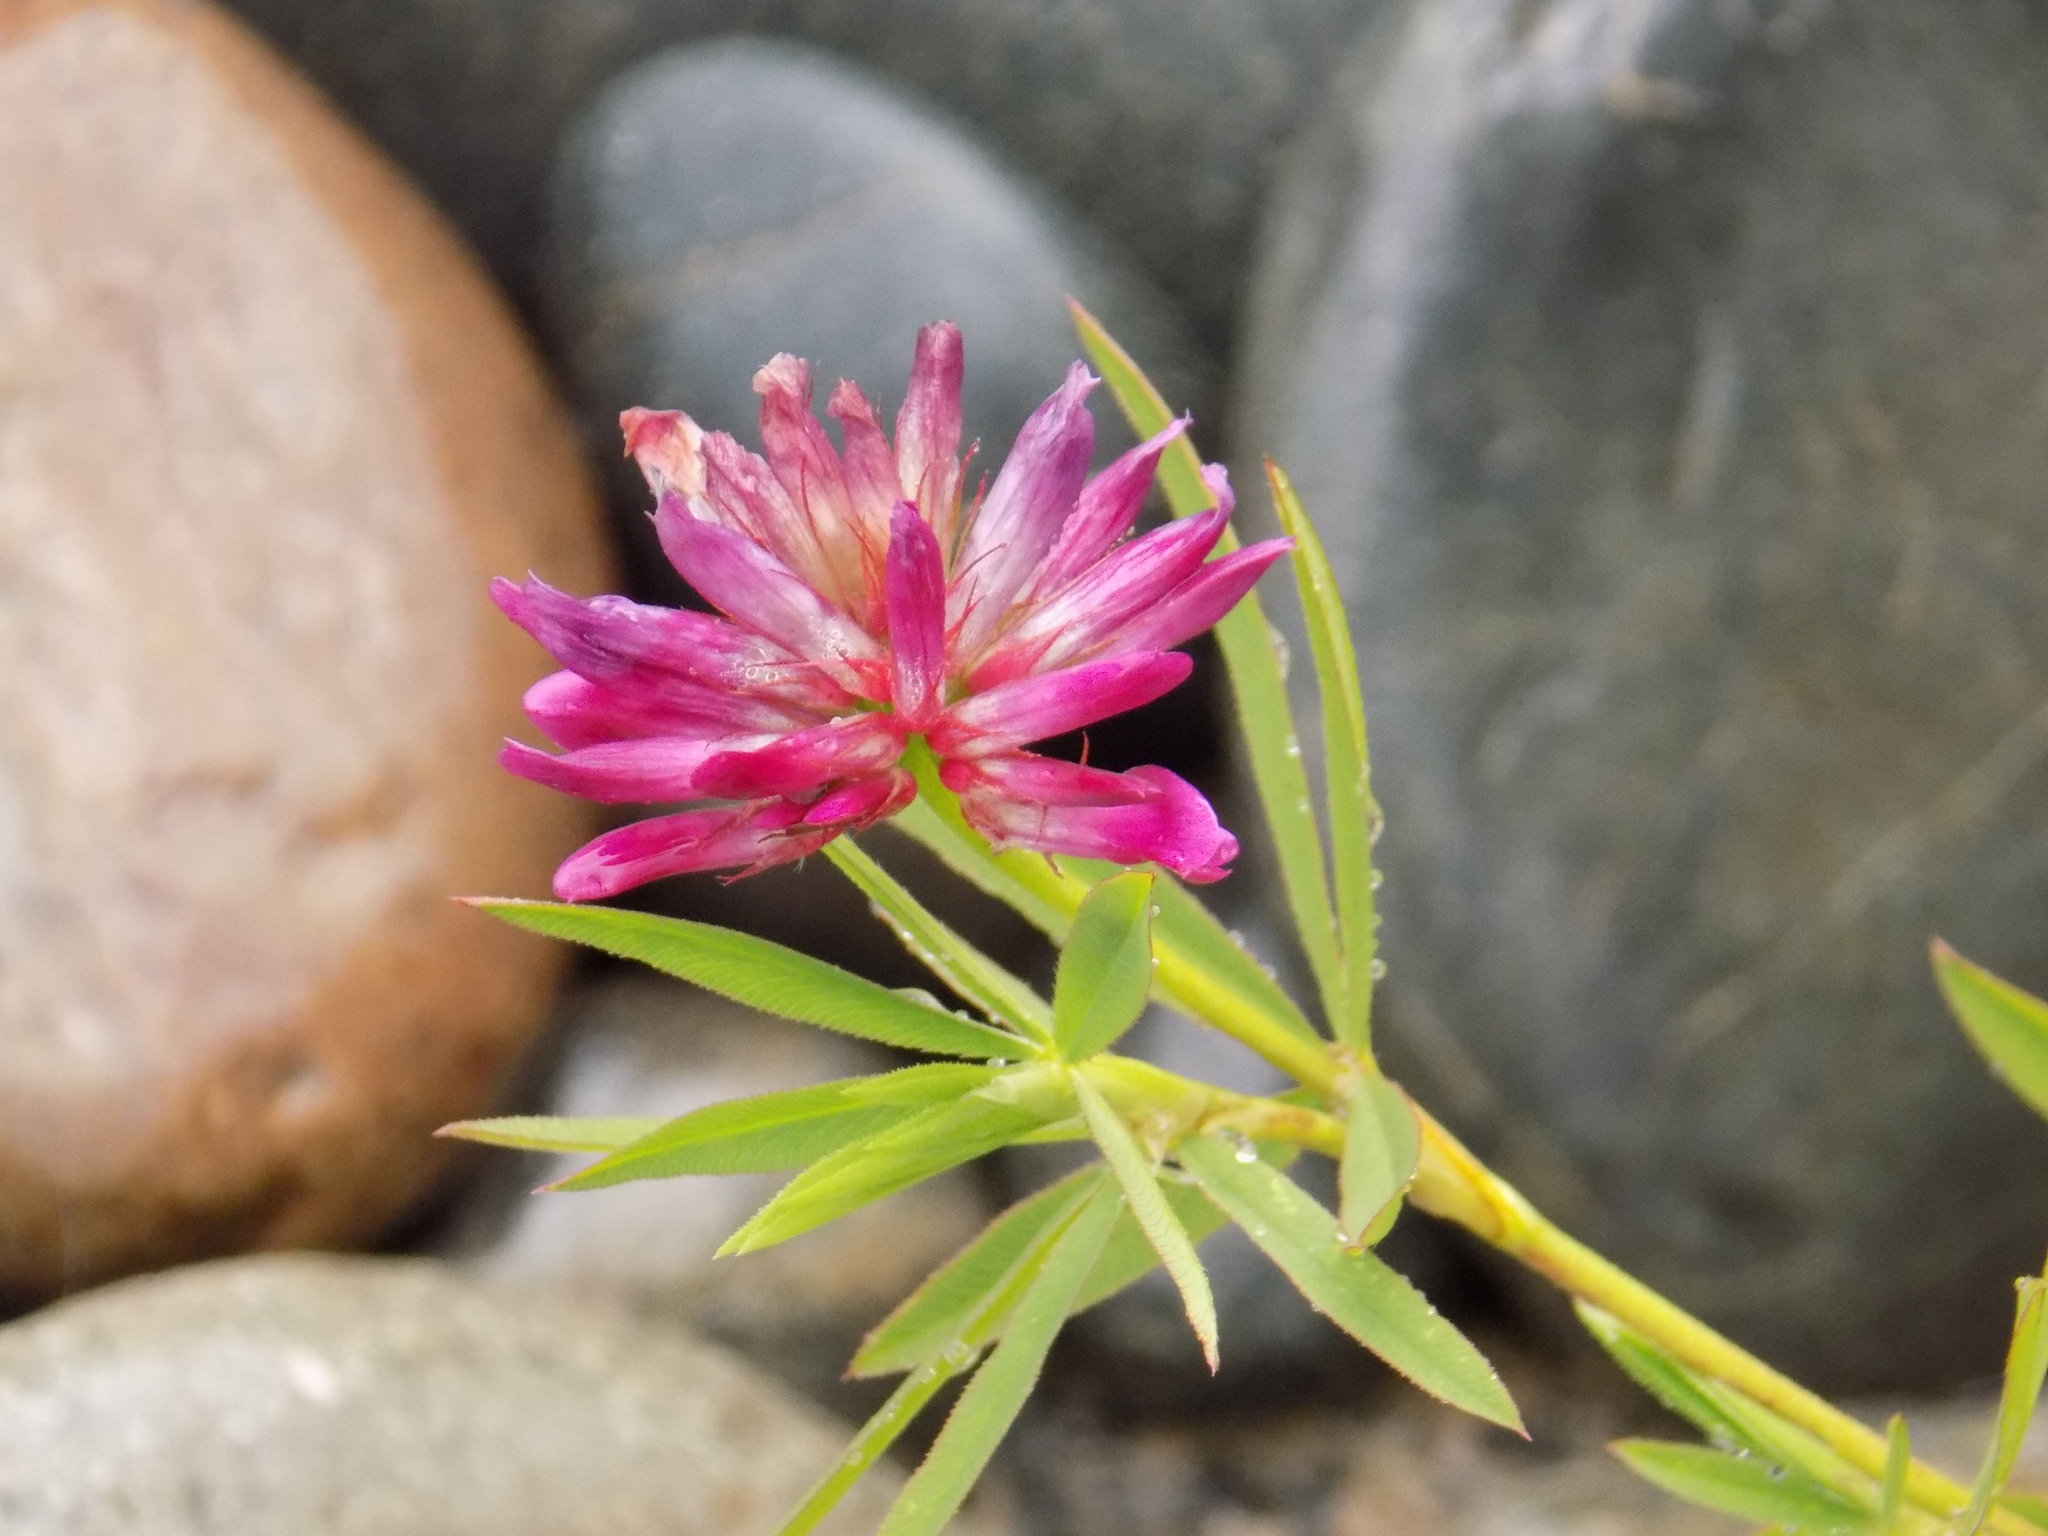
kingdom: Plantae
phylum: Tracheophyta
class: Magnoliopsida
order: Fabales
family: Fabaceae
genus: Trifolium
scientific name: Trifolium lupinaster
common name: Lupine clover
